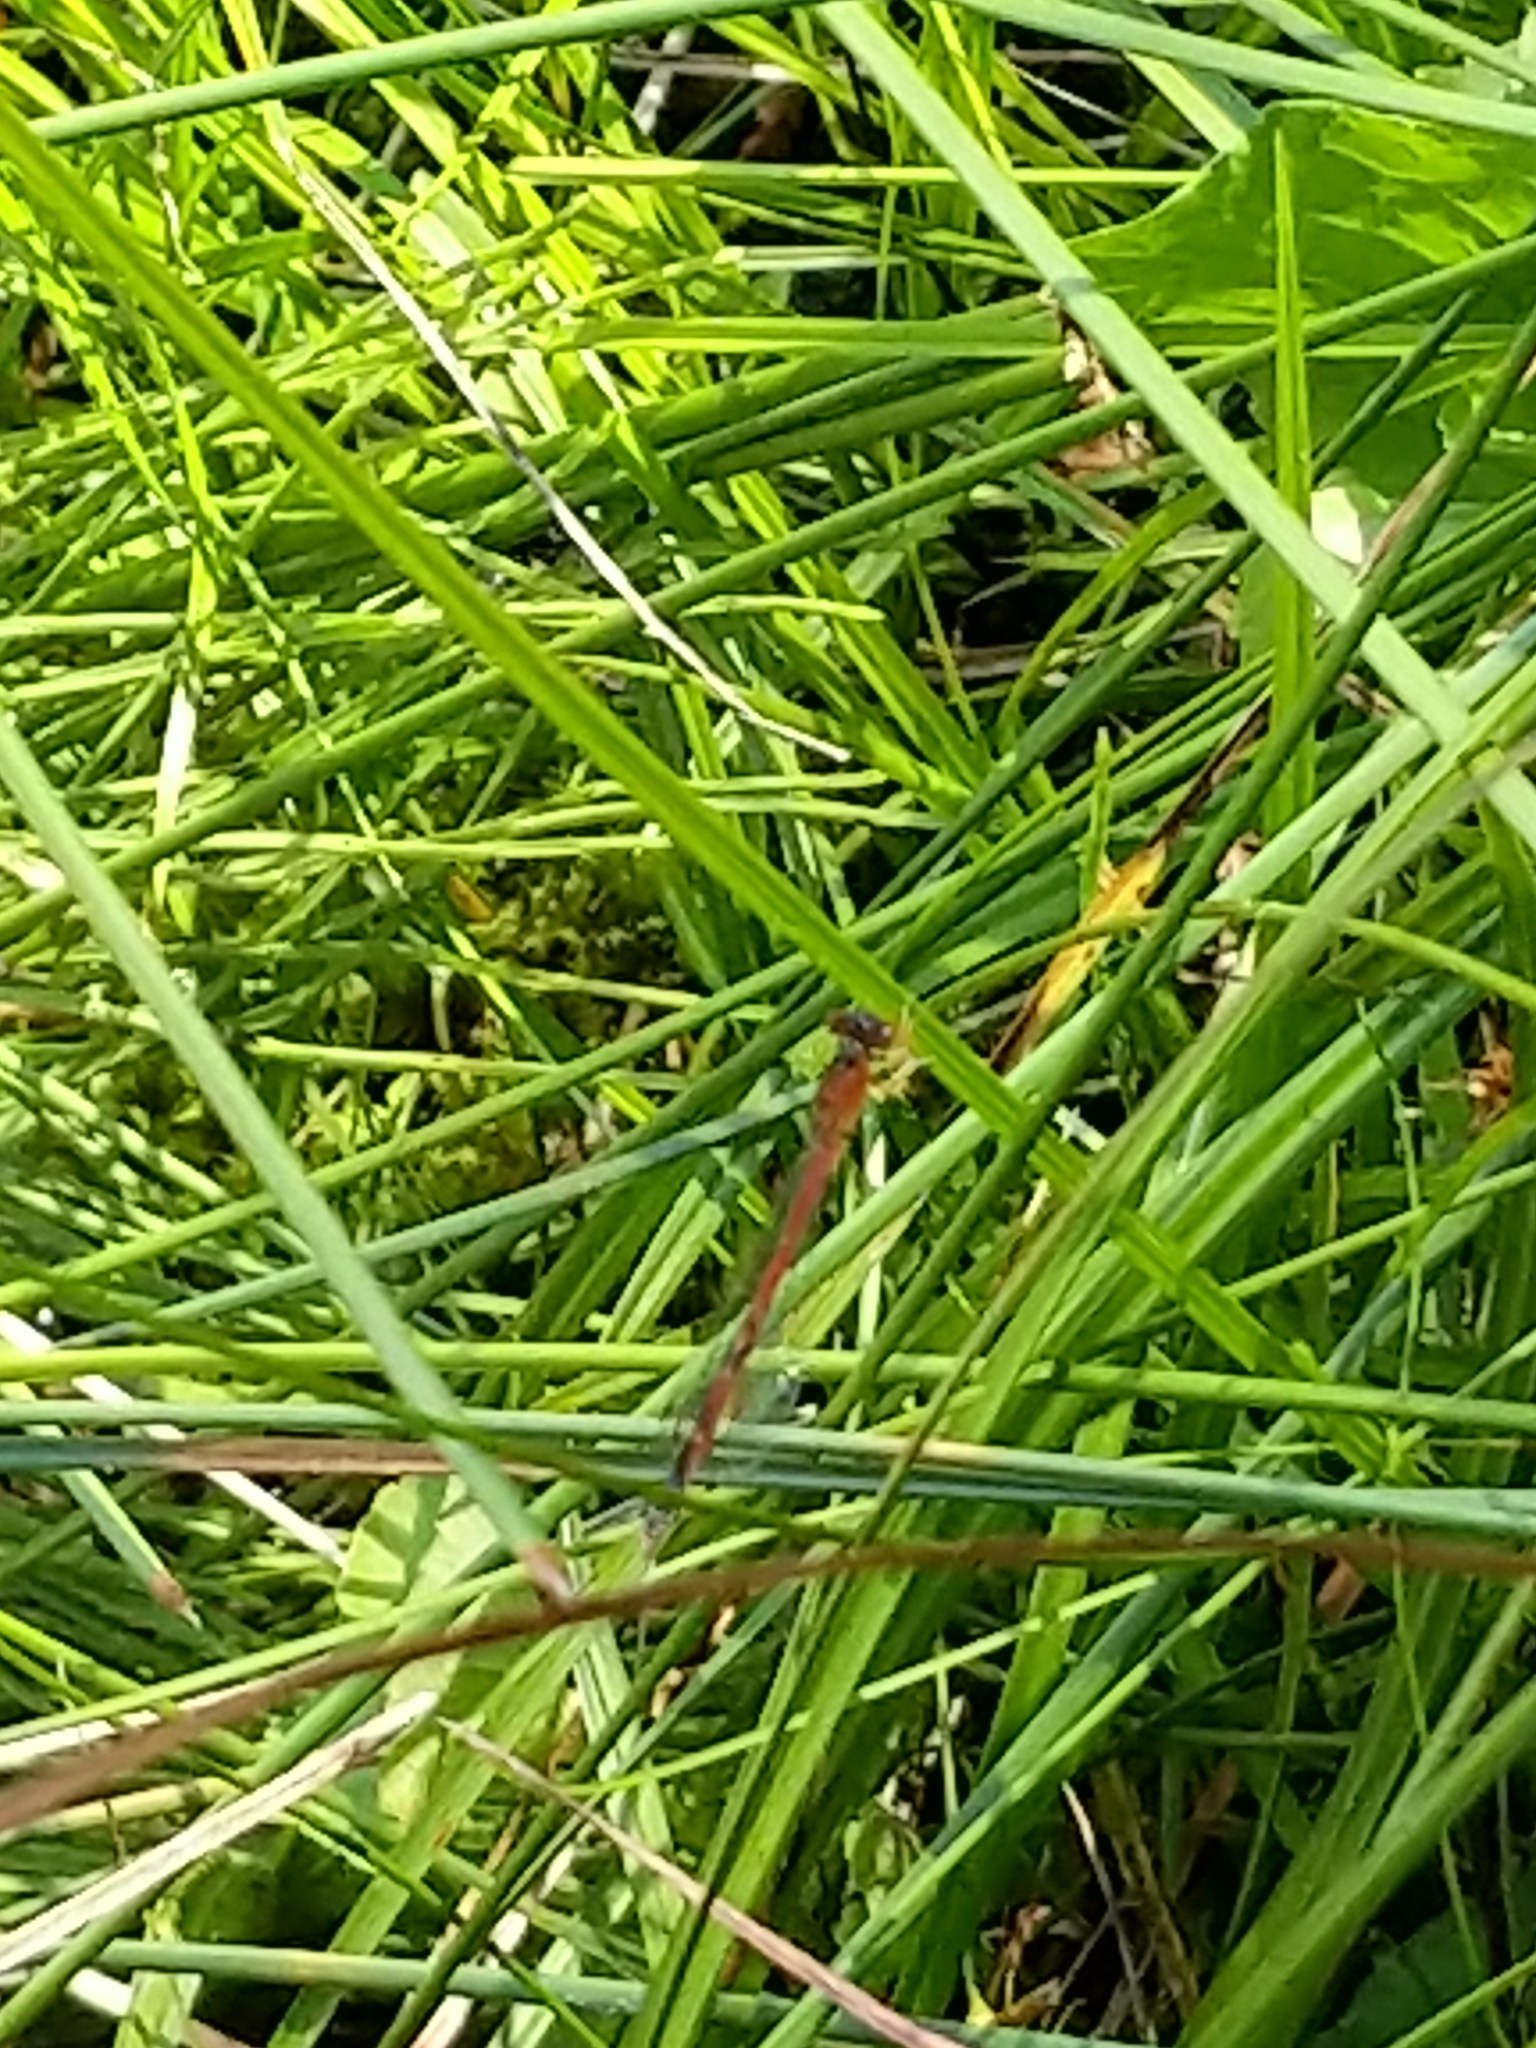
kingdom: Animalia
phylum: Arthropoda
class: Insecta
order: Odonata
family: Coenagrionidae
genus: Amphiagrion
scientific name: Amphiagrion saucium
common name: Eastern red damsel
